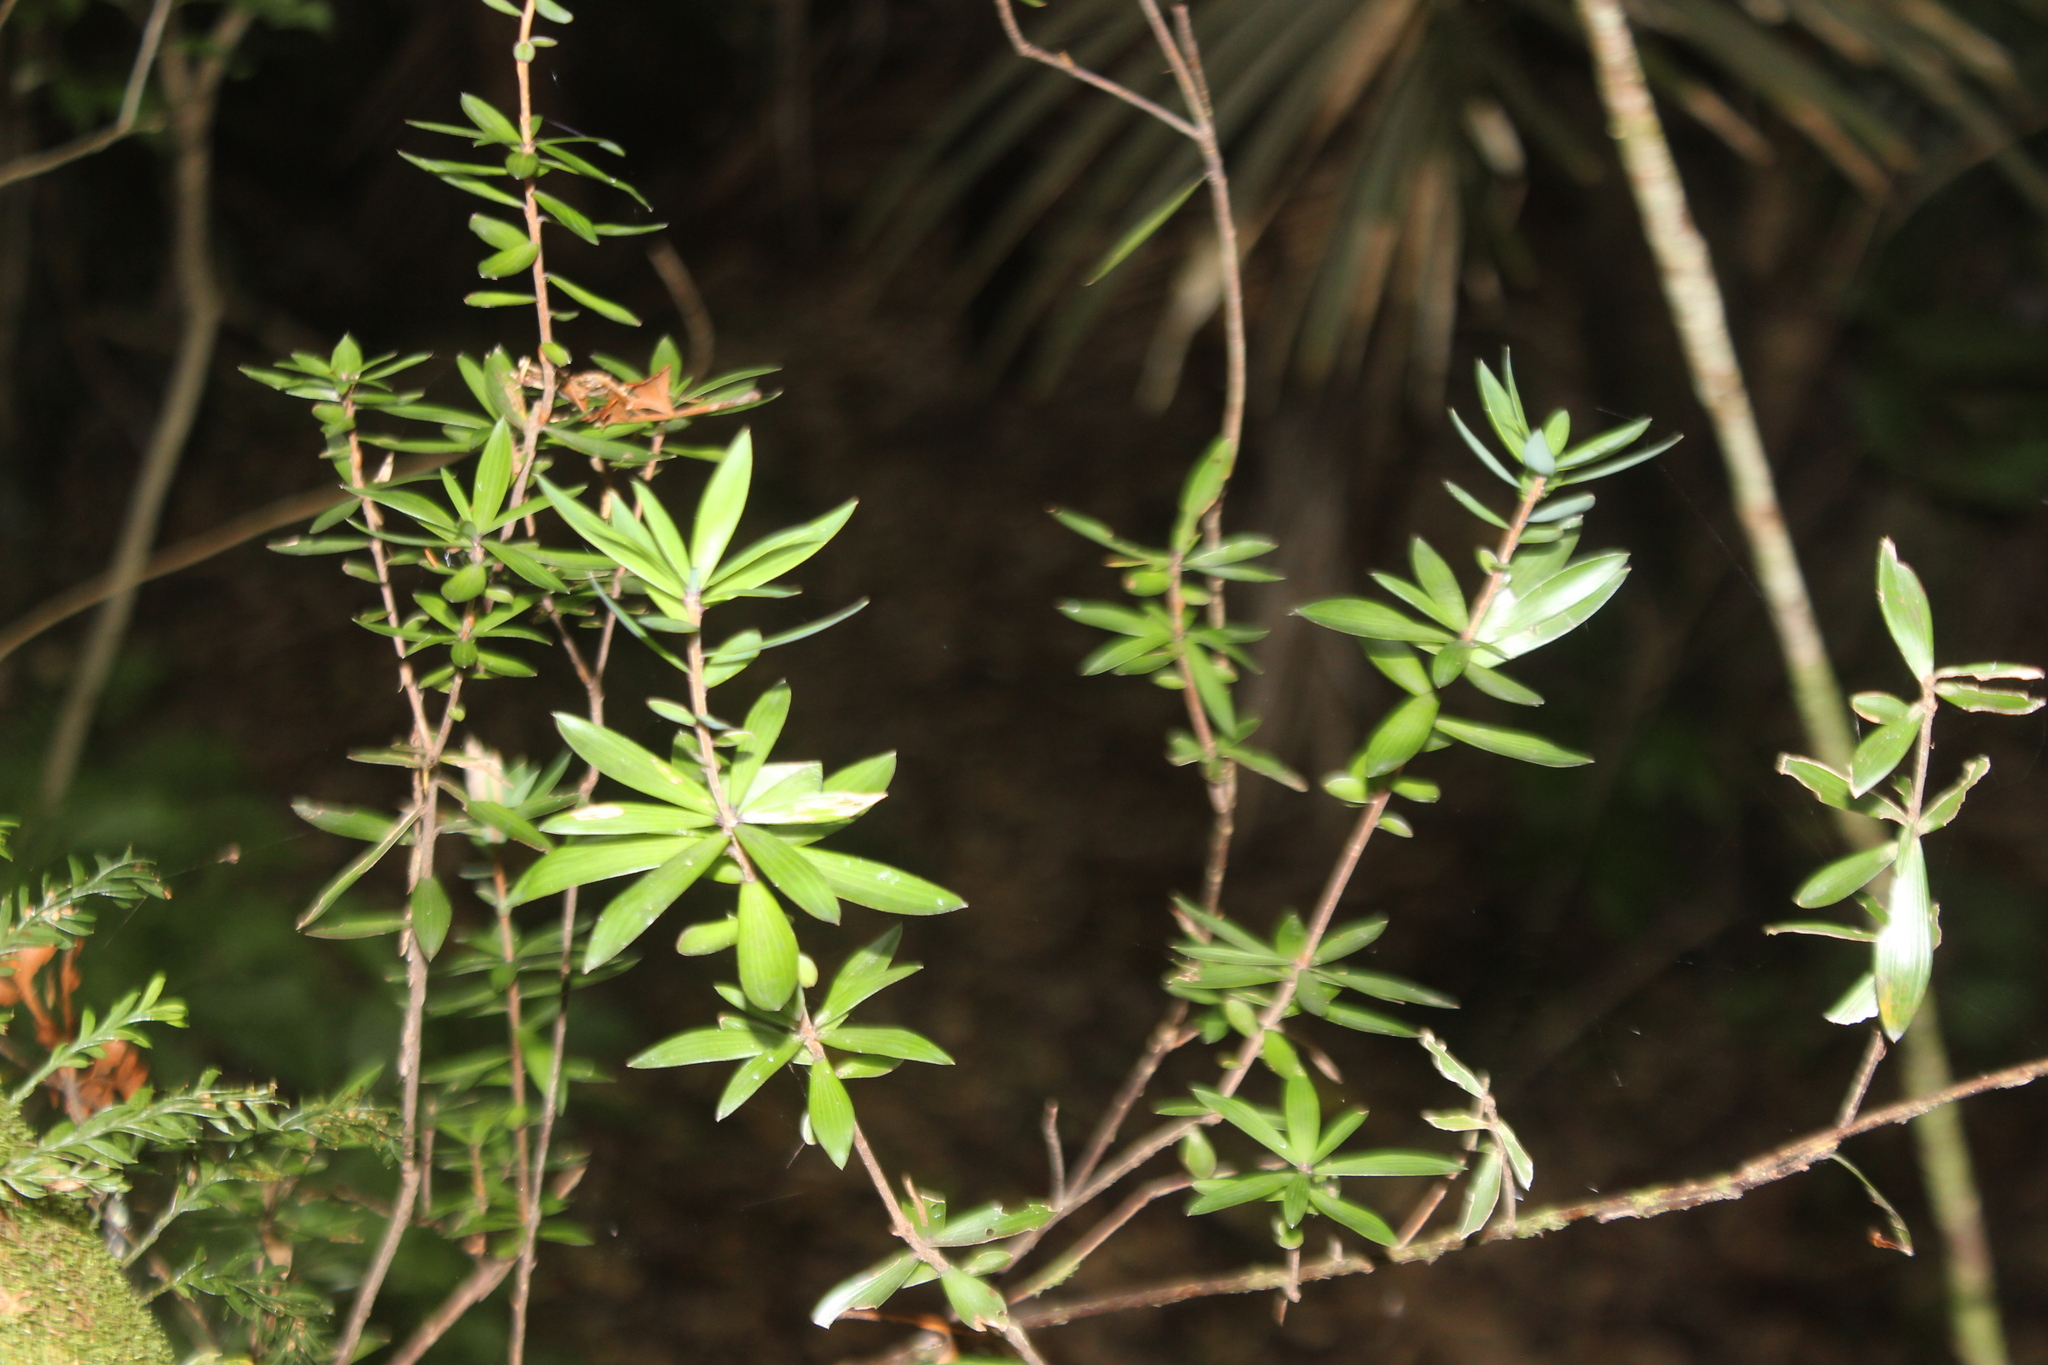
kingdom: Plantae
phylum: Tracheophyta
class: Magnoliopsida
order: Ericales
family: Ericaceae
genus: Leucopogon
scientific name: Leucopogon fasciculatus
